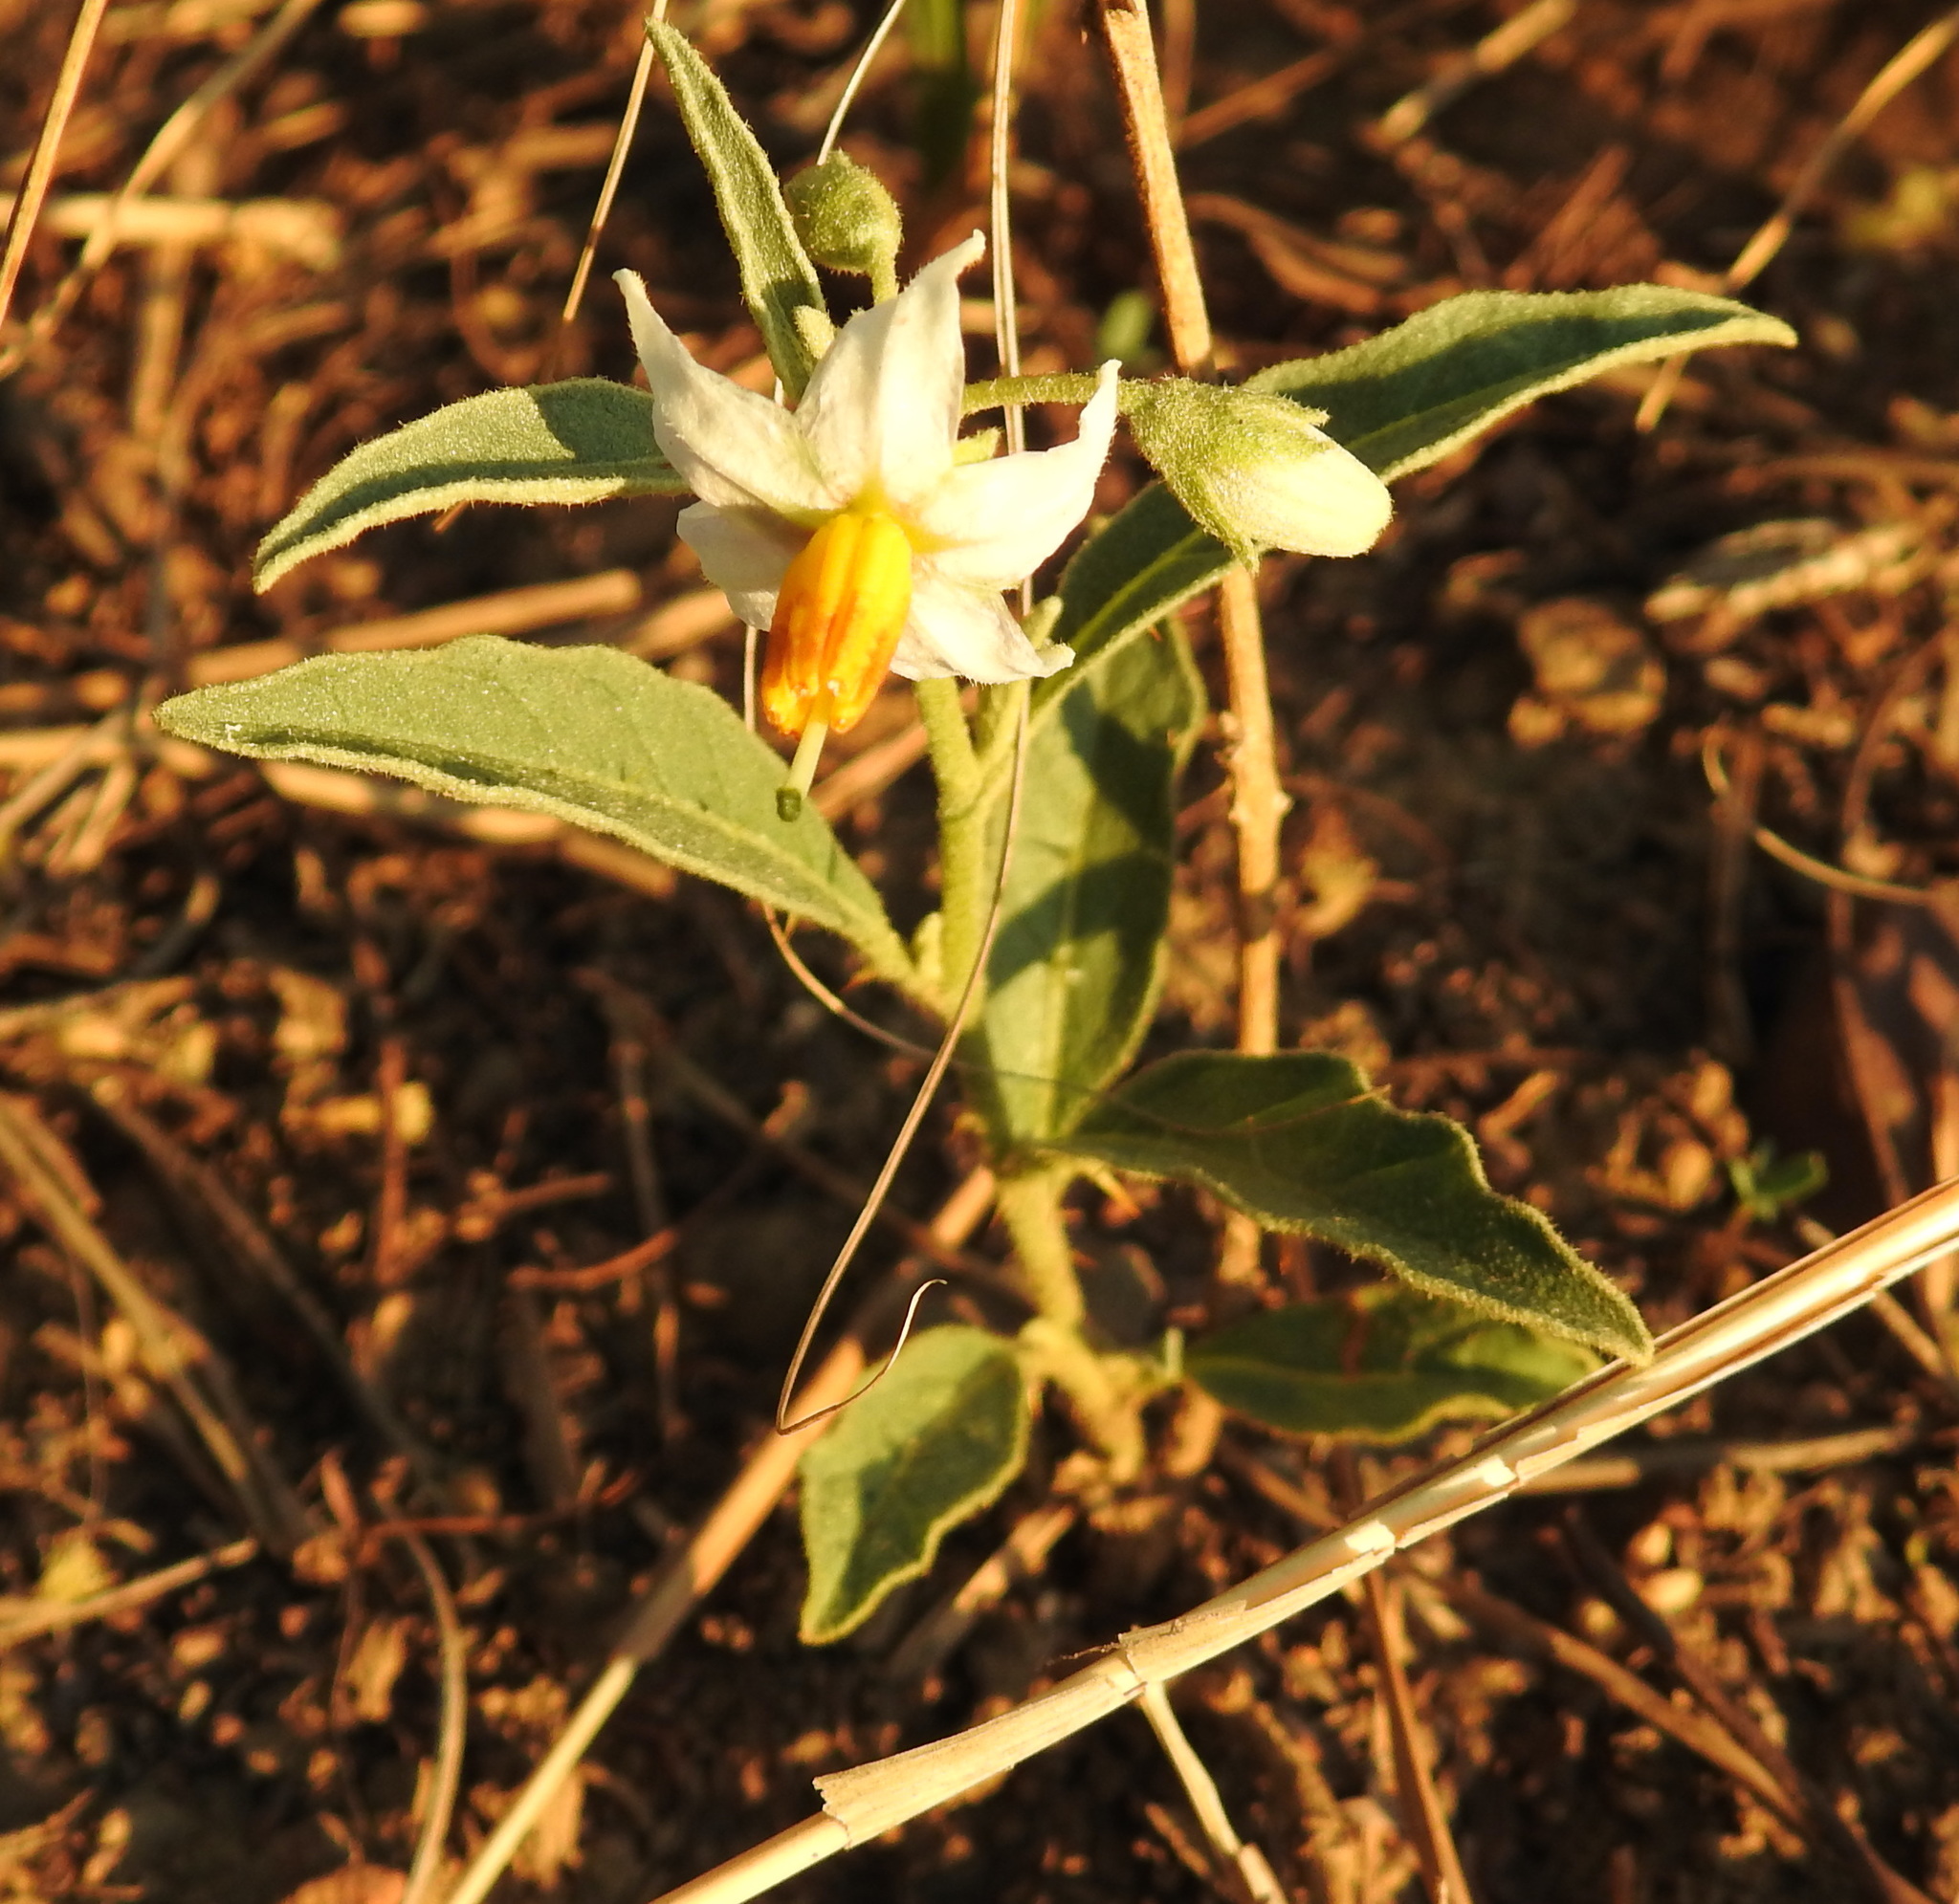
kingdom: Plantae
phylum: Tracheophyta
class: Magnoliopsida
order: Solanales
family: Solanaceae
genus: Solanum
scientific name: Solanum campylacanthum
